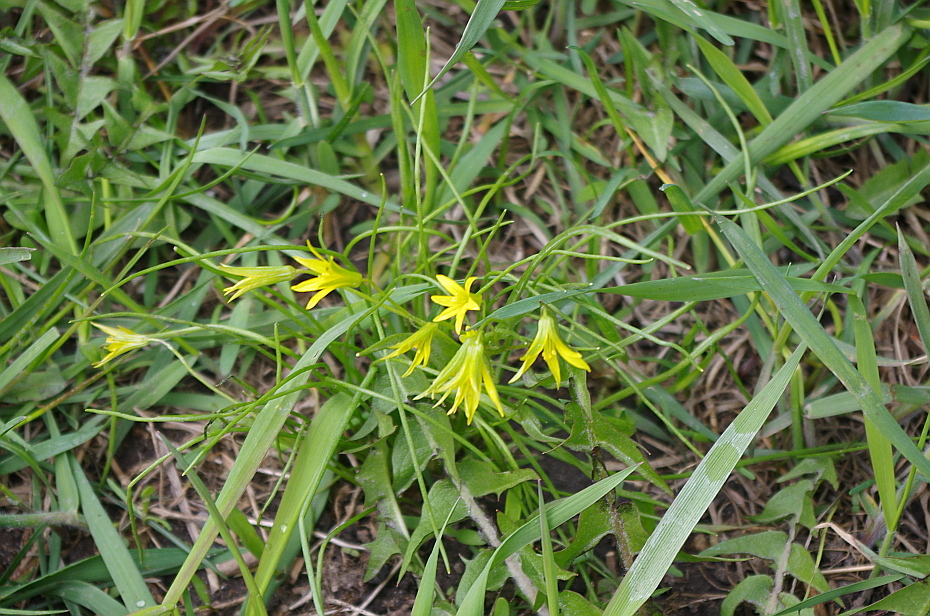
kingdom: Plantae
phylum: Tracheophyta
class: Liliopsida
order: Liliales
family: Liliaceae
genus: Gagea
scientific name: Gagea minima
